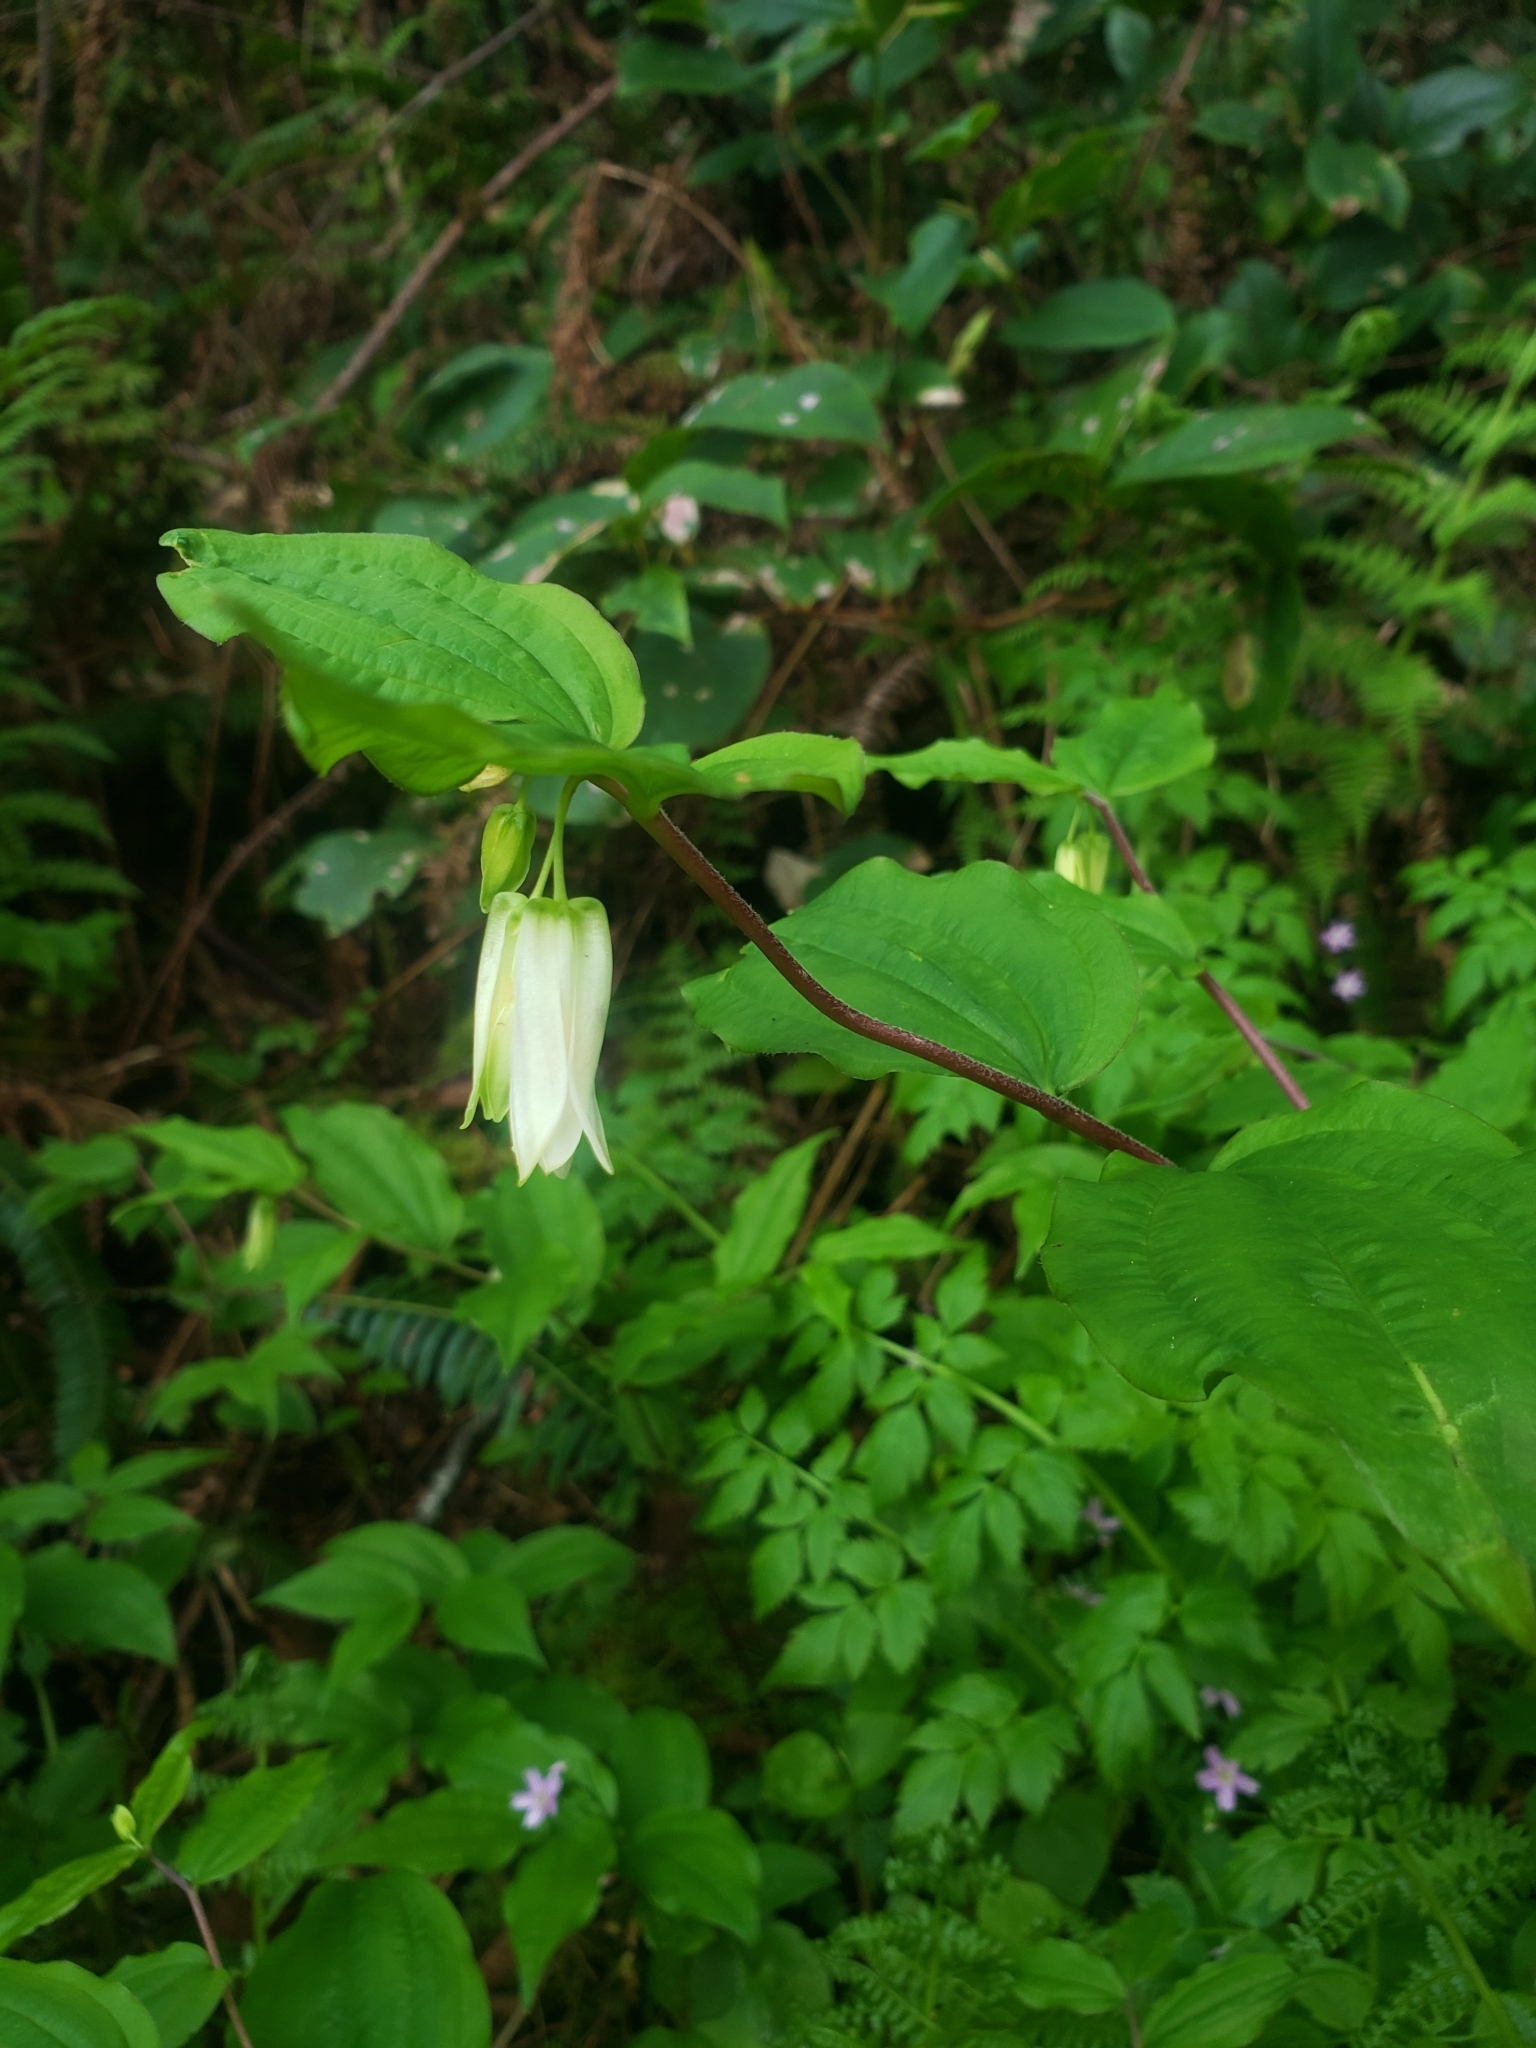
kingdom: Plantae
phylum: Tracheophyta
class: Liliopsida
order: Liliales
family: Liliaceae
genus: Prosartes
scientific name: Prosartes smithii
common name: Fairy-lantern
